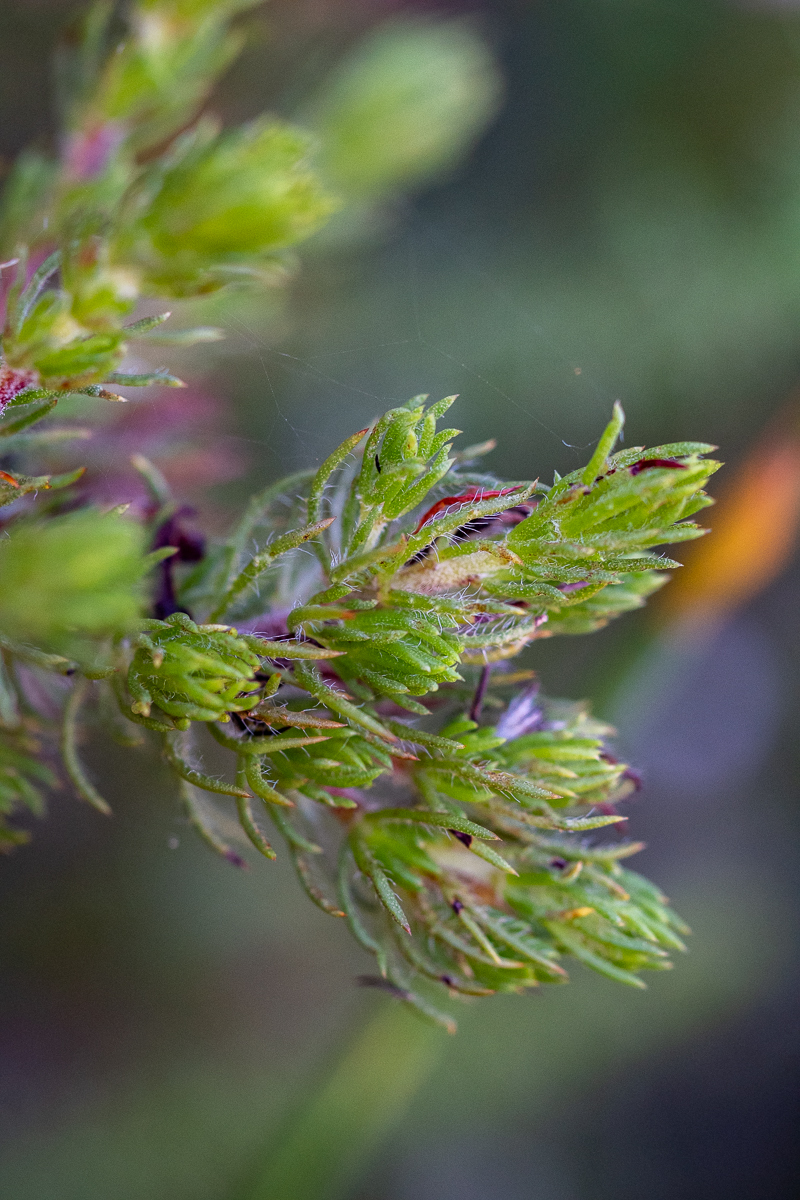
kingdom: Plantae
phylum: Tracheophyta
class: Magnoliopsida
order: Fabales
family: Fabaceae
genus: Aspalathus
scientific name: Aspalathus ciliaris
